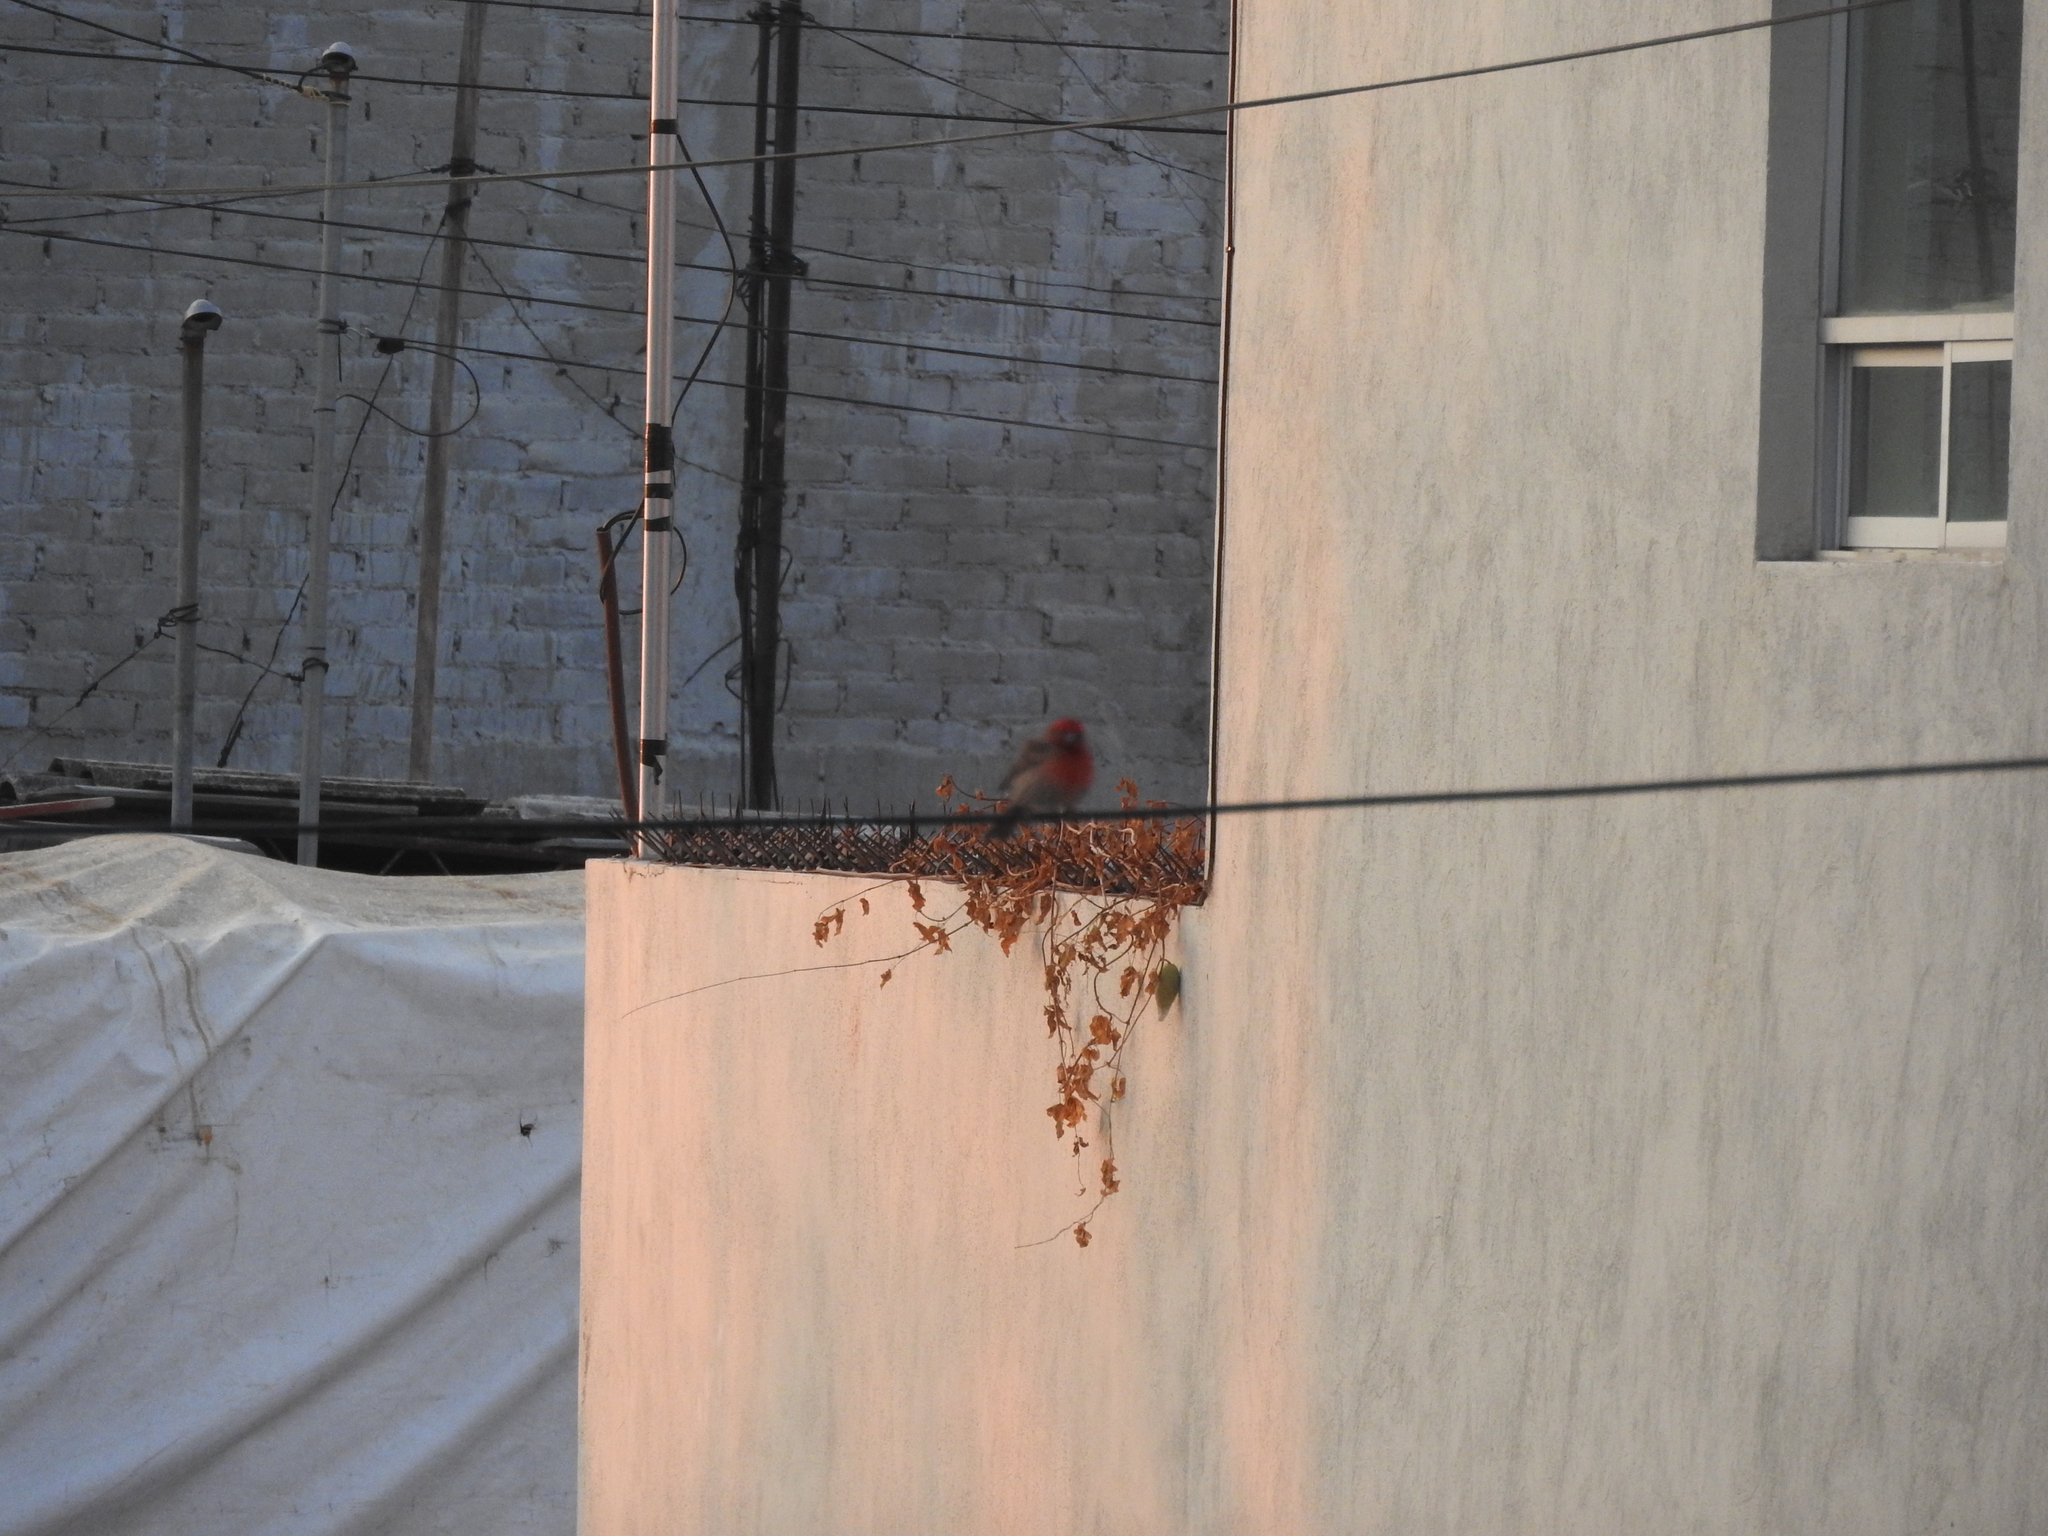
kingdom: Animalia
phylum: Chordata
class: Aves
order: Passeriformes
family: Fringillidae
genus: Haemorhous
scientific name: Haemorhous mexicanus
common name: House finch
